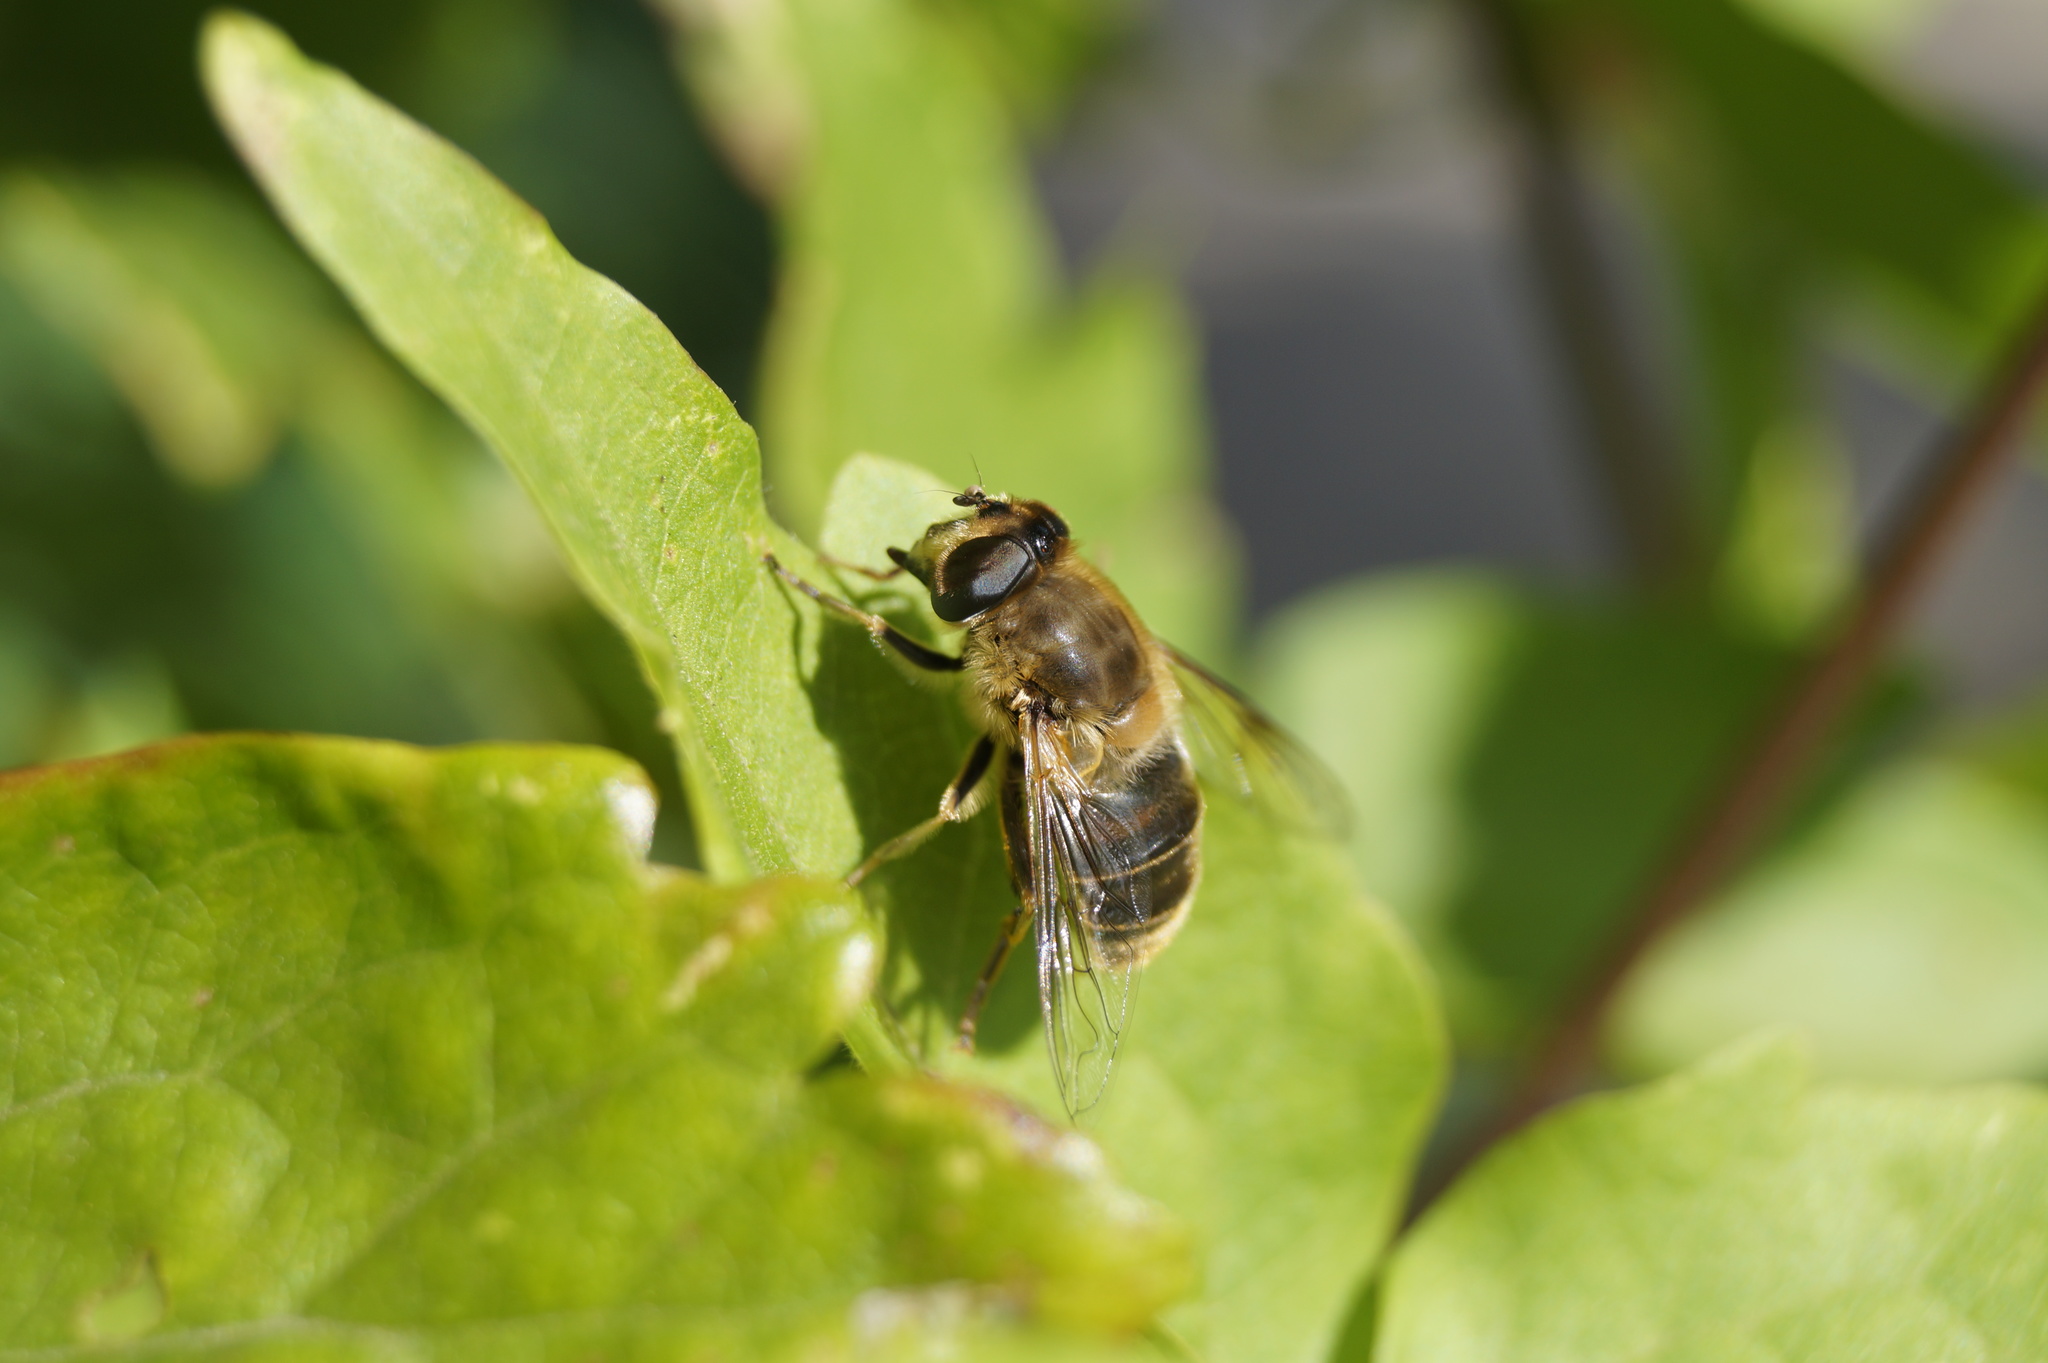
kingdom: Animalia
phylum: Arthropoda
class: Insecta
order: Diptera
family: Syrphidae
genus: Eristalis
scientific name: Eristalis tenax
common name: Drone fly
